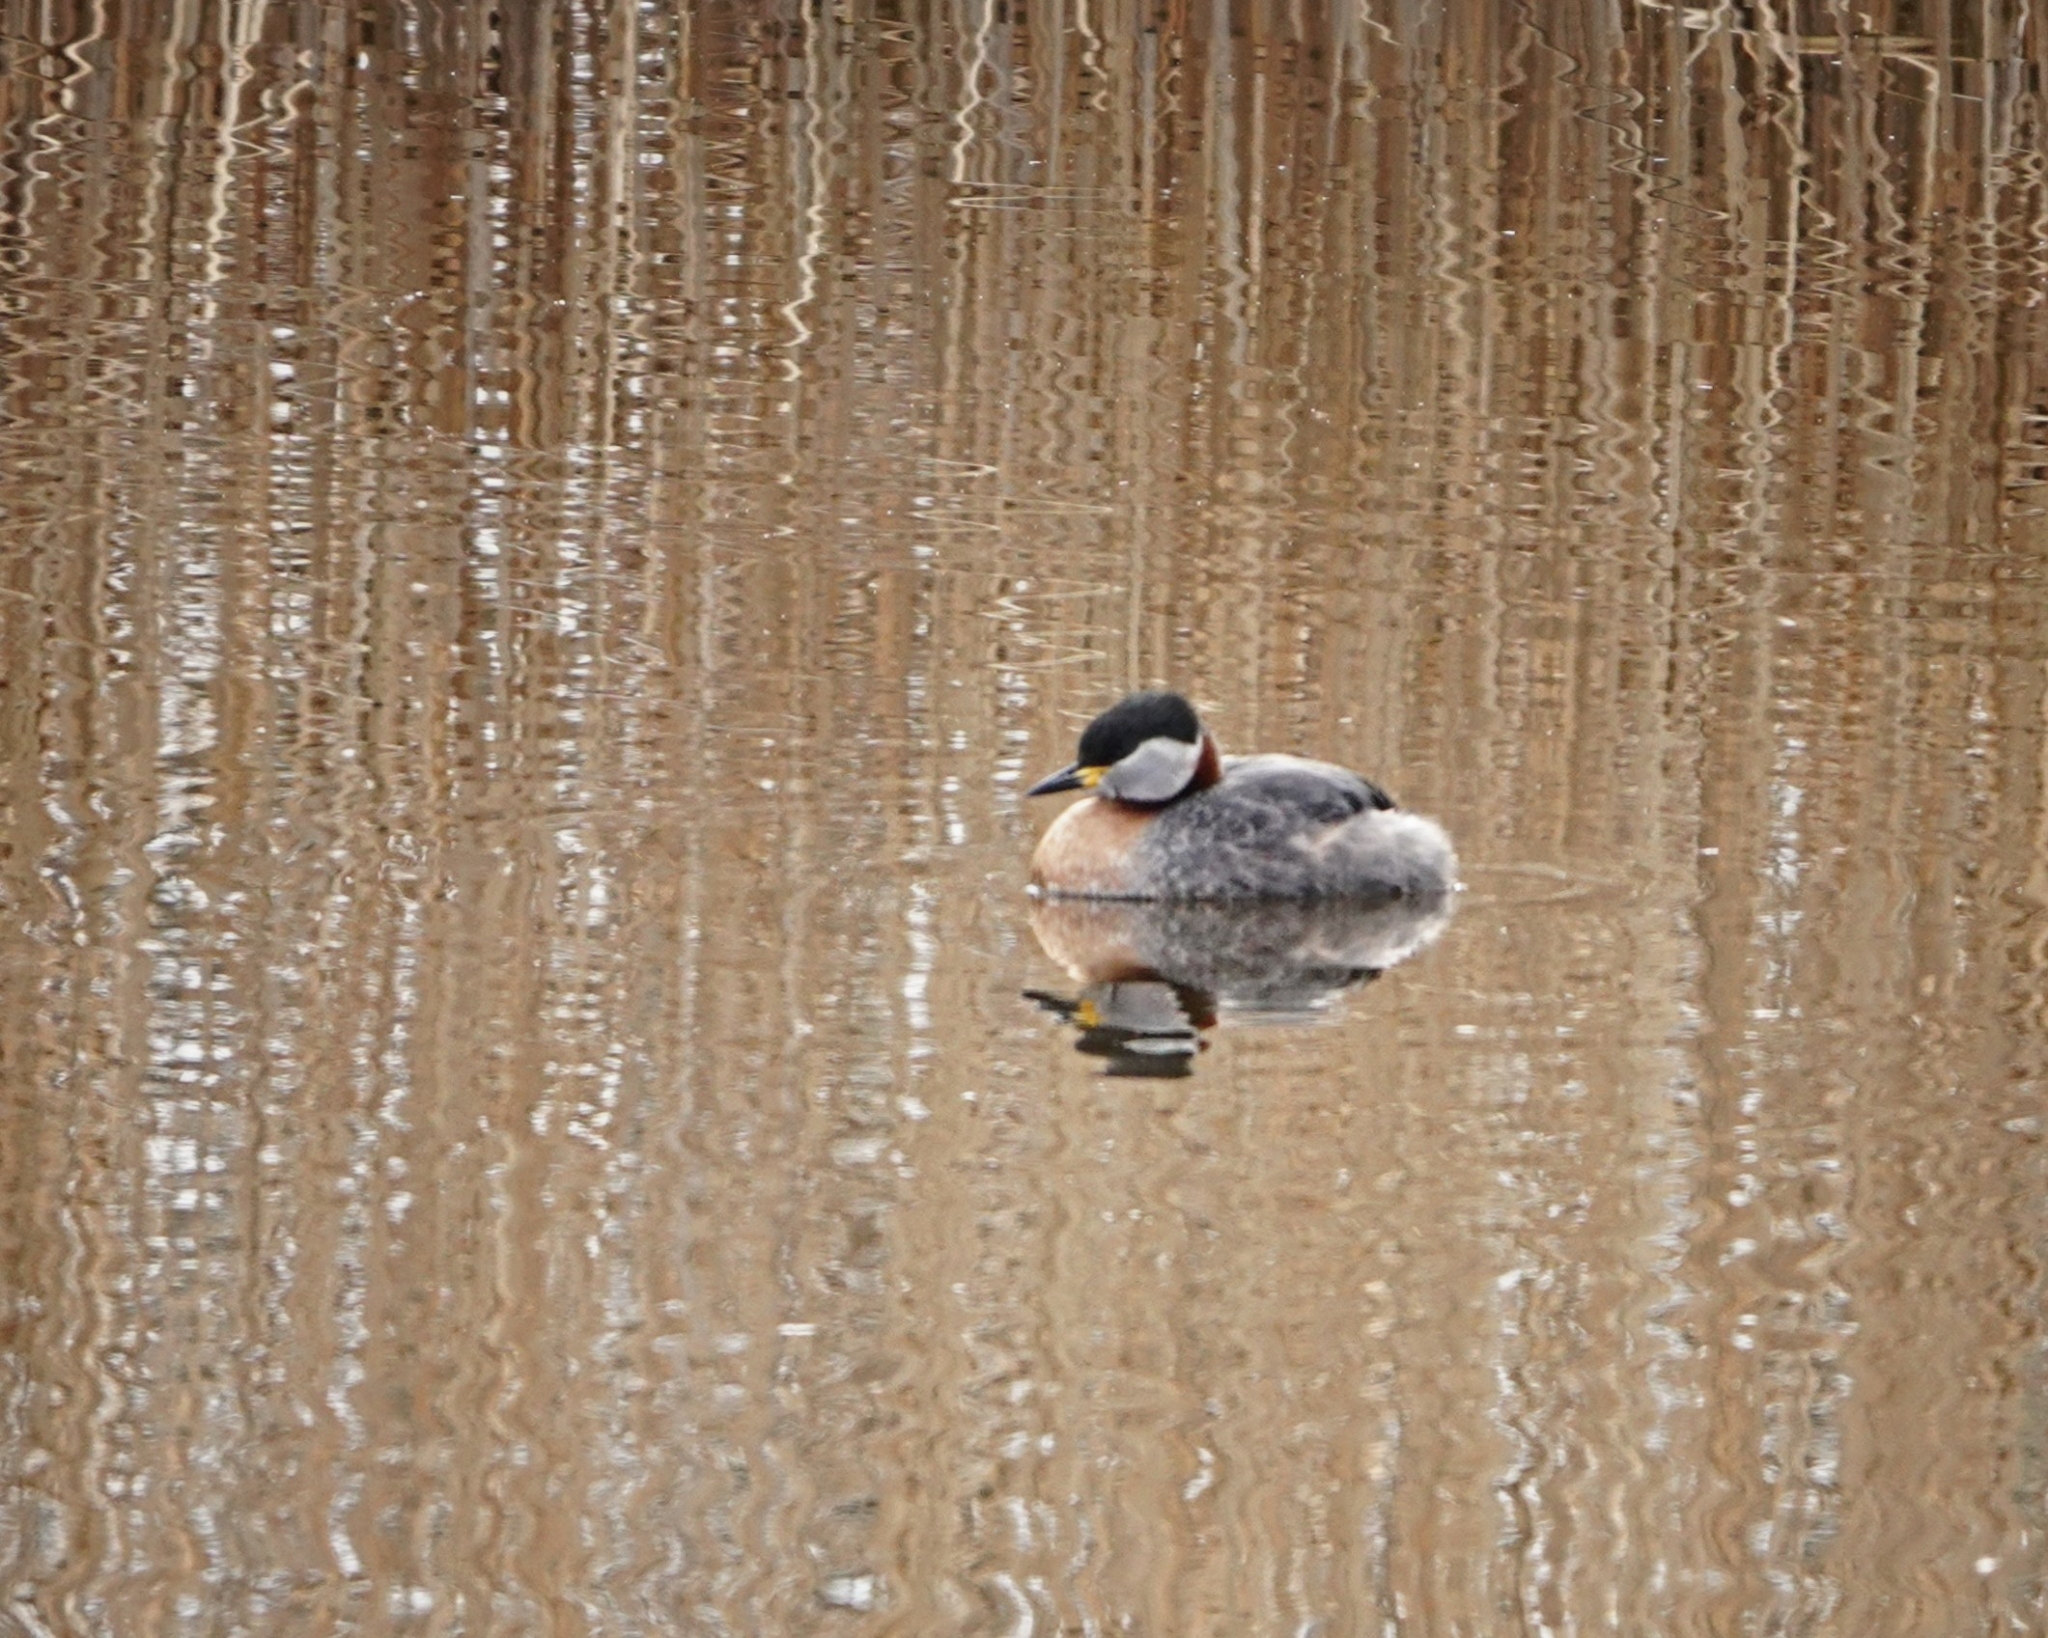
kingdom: Animalia
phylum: Chordata
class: Aves
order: Podicipediformes
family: Podicipedidae
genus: Podiceps
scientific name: Podiceps grisegena
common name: Red-necked grebe
